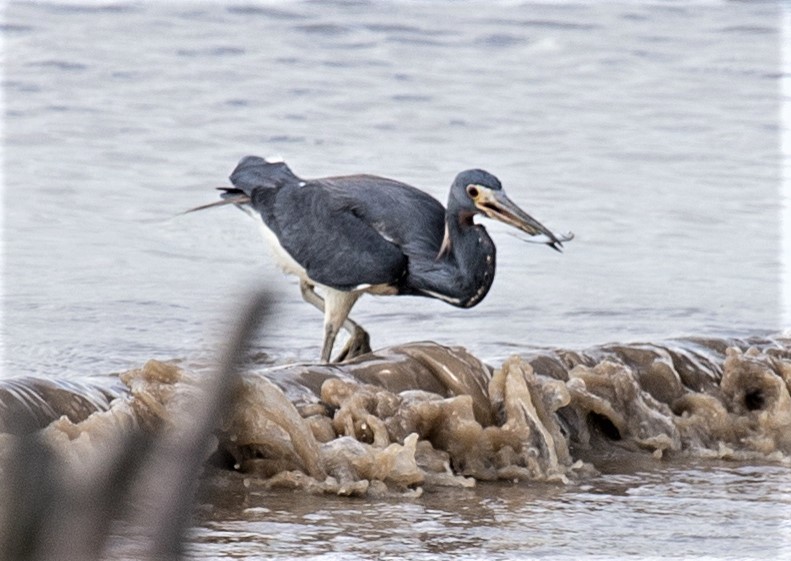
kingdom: Animalia
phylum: Chordata
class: Aves
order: Pelecaniformes
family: Ardeidae
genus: Egretta
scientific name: Egretta tricolor
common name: Tricolored heron
